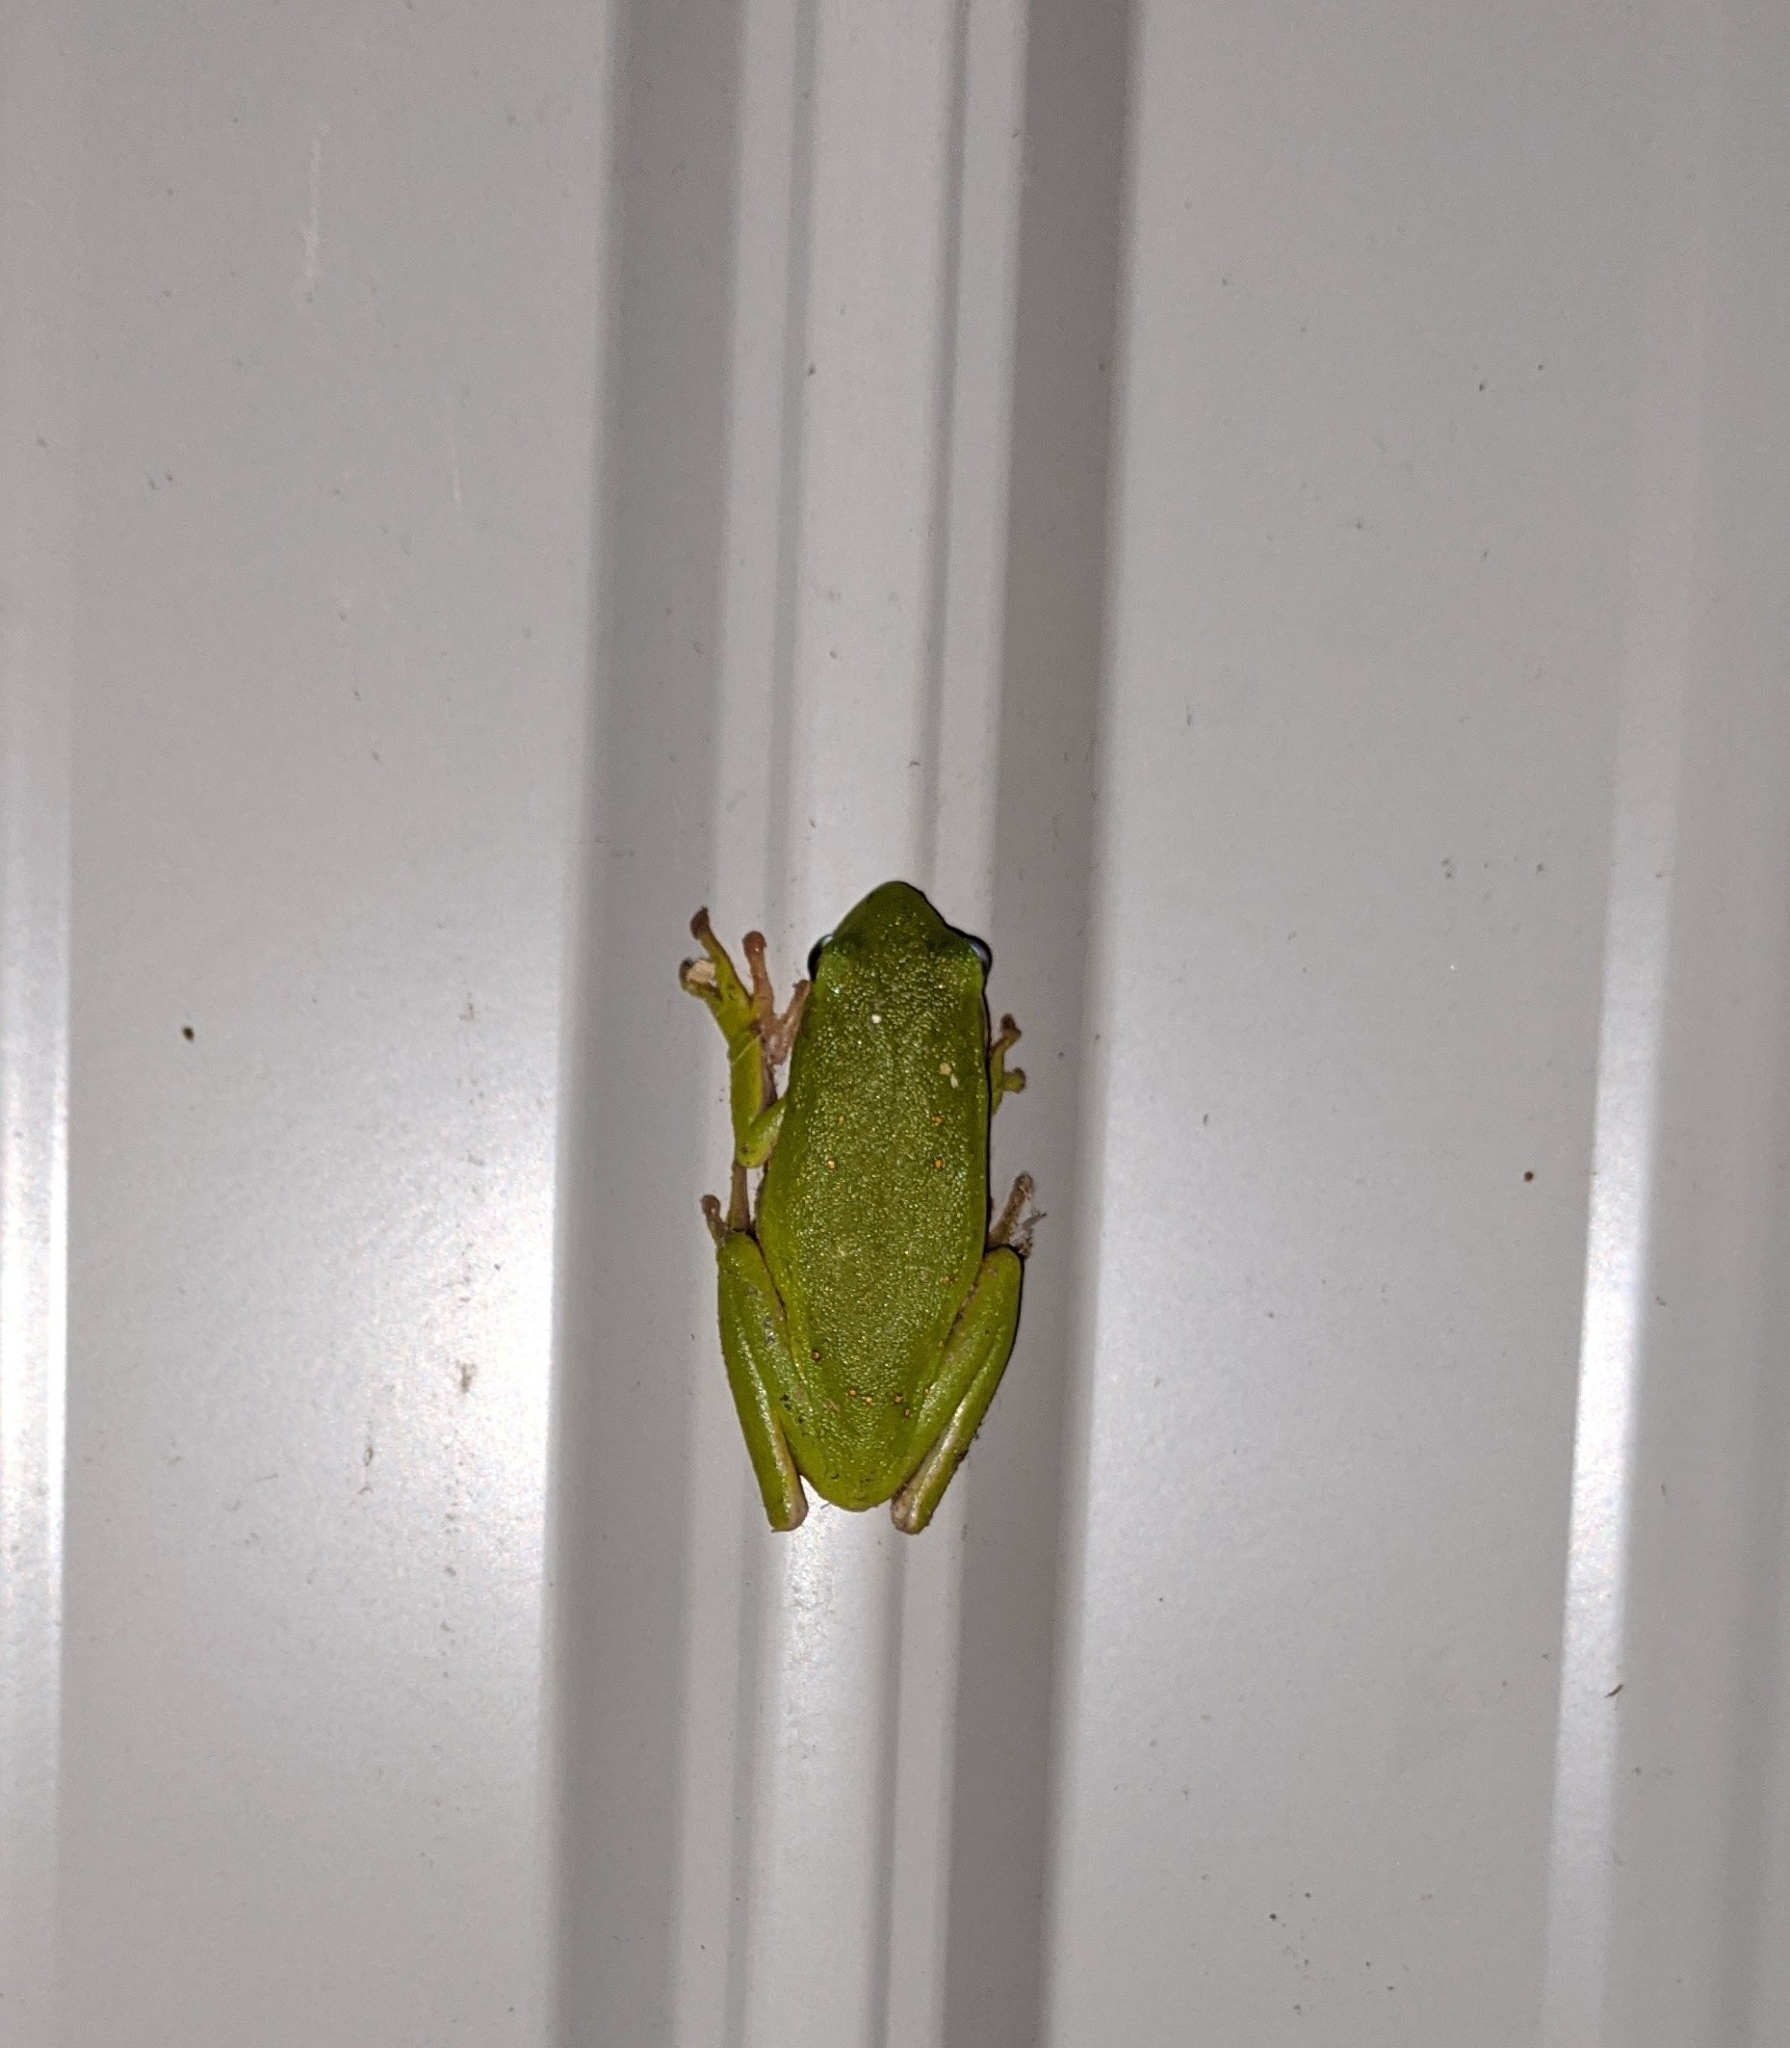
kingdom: Animalia
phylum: Chordata
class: Amphibia
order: Anura
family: Hylidae
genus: Dryophytes
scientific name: Dryophytes cinereus
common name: Green treefrog
